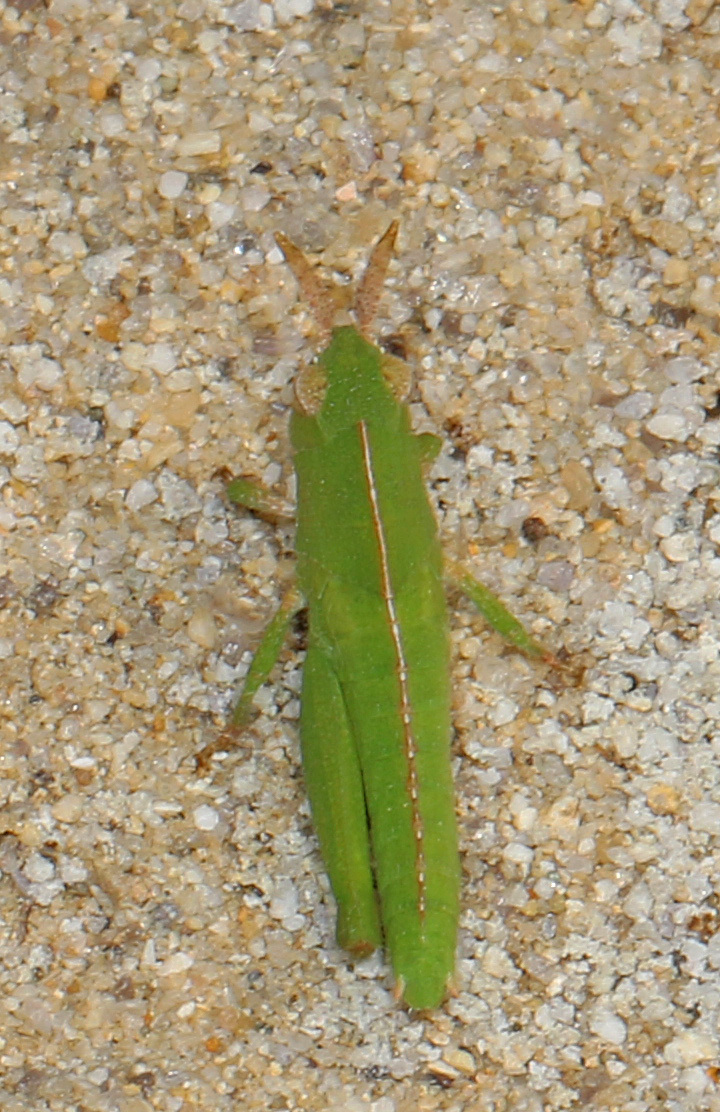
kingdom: Animalia
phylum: Arthropoda
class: Insecta
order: Orthoptera
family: Acrididae
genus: Chortophaga
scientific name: Chortophaga viridifasciata
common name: Green-striped grasshopper
